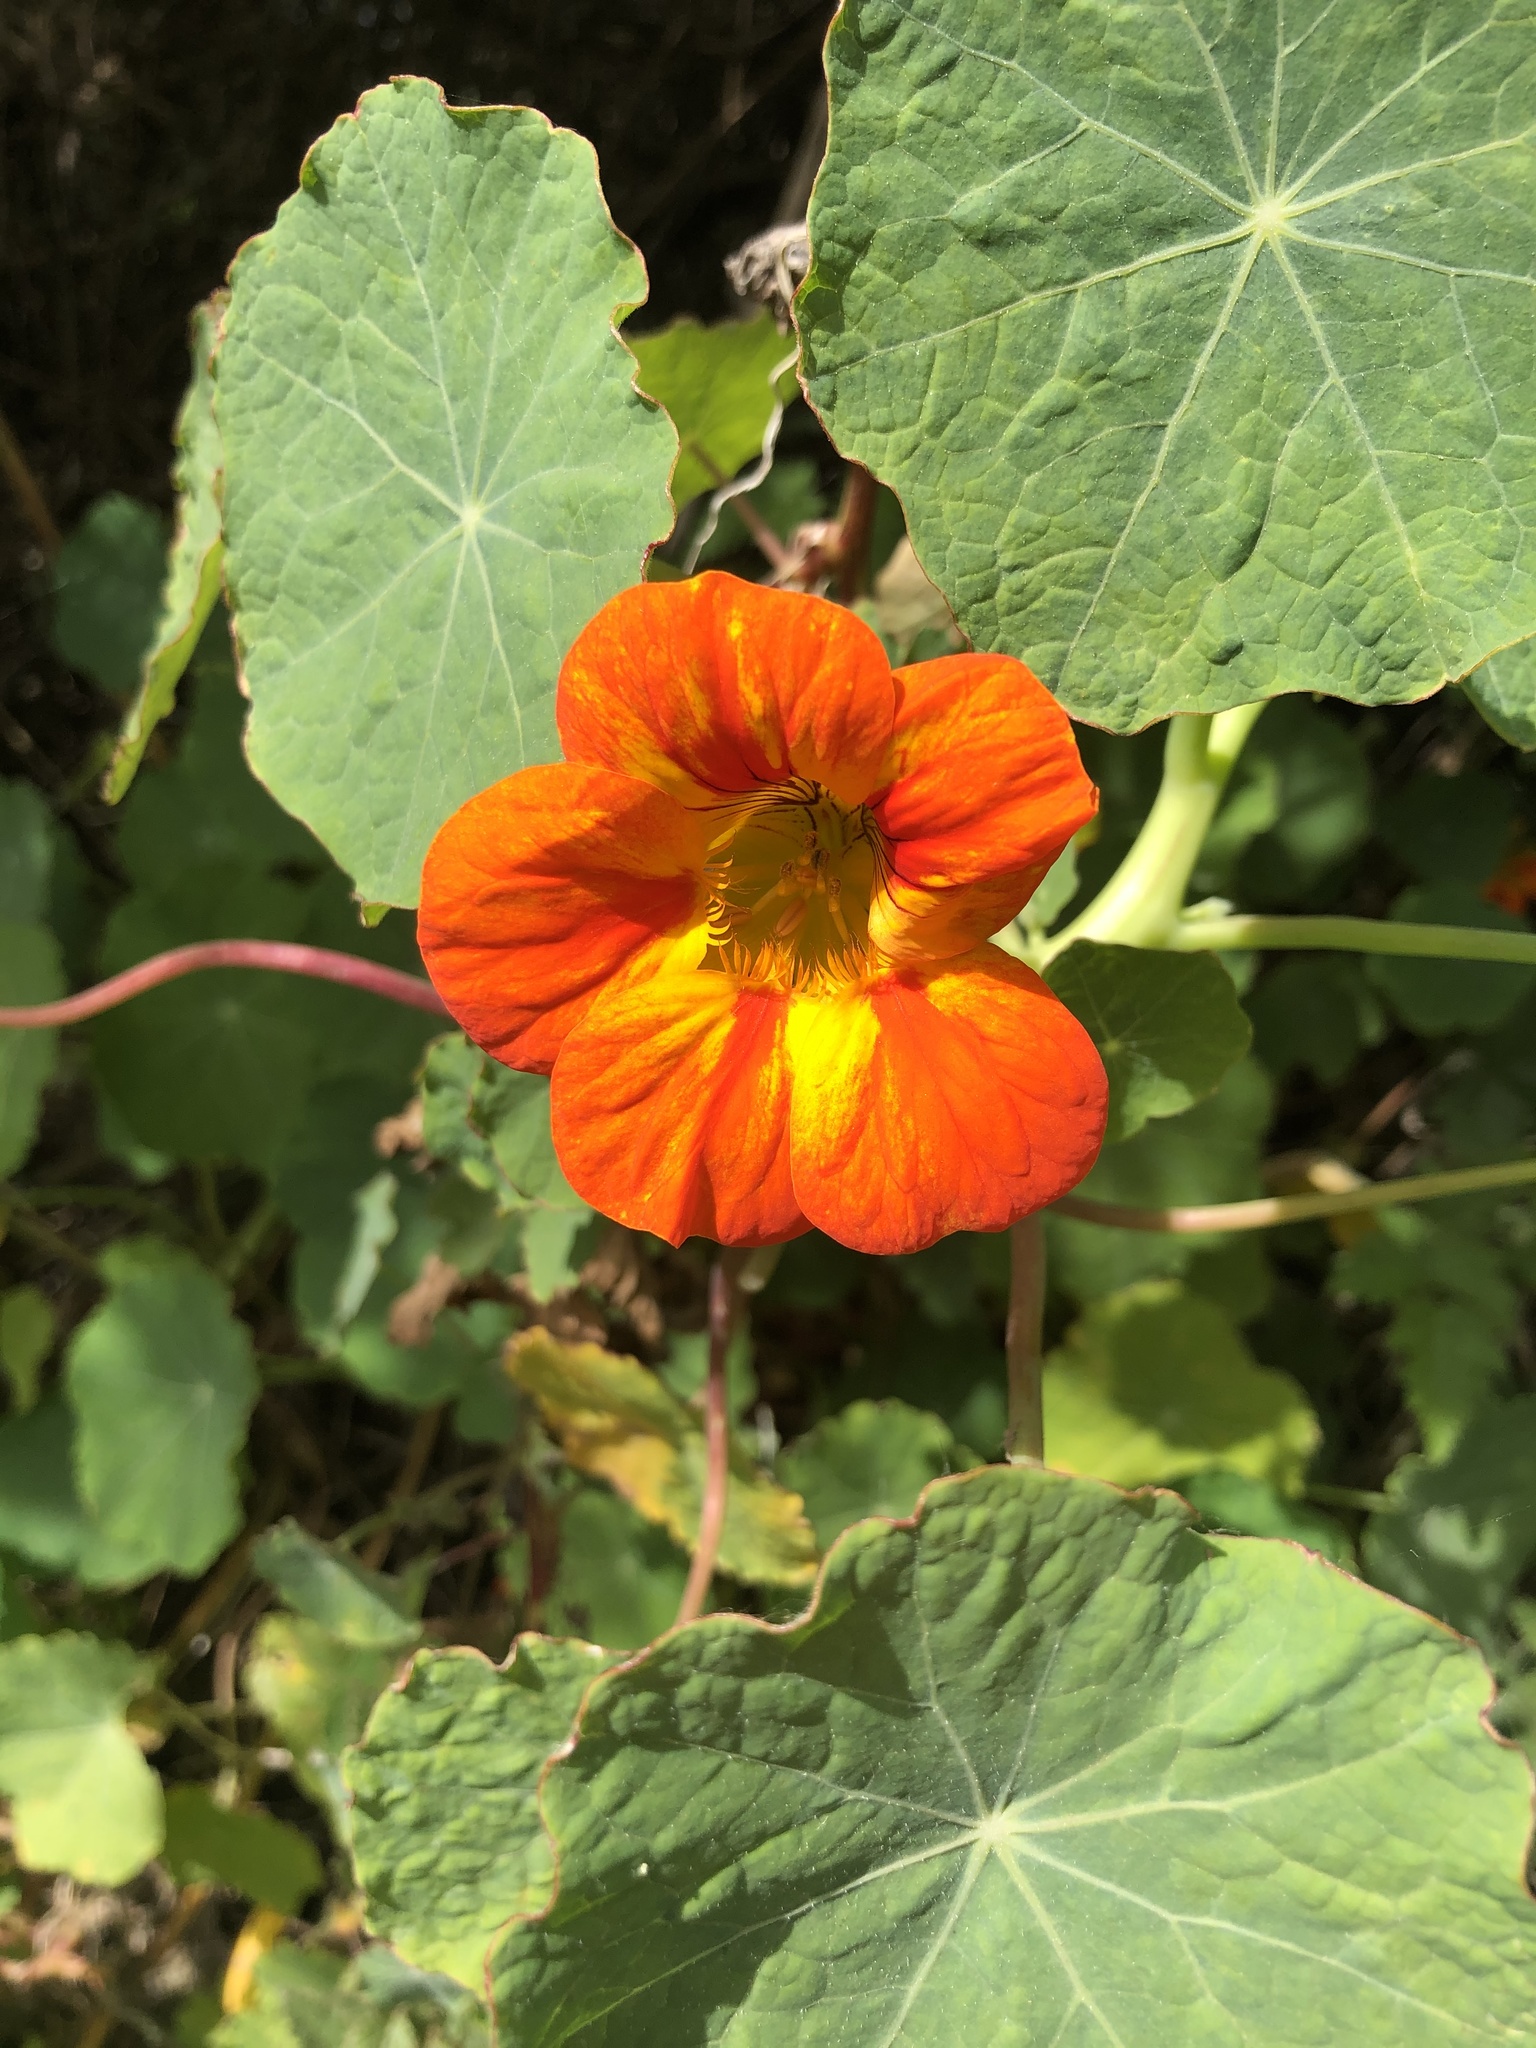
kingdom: Plantae
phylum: Tracheophyta
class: Magnoliopsida
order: Brassicales
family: Tropaeolaceae
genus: Tropaeolum
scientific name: Tropaeolum majus
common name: Nasturtium
